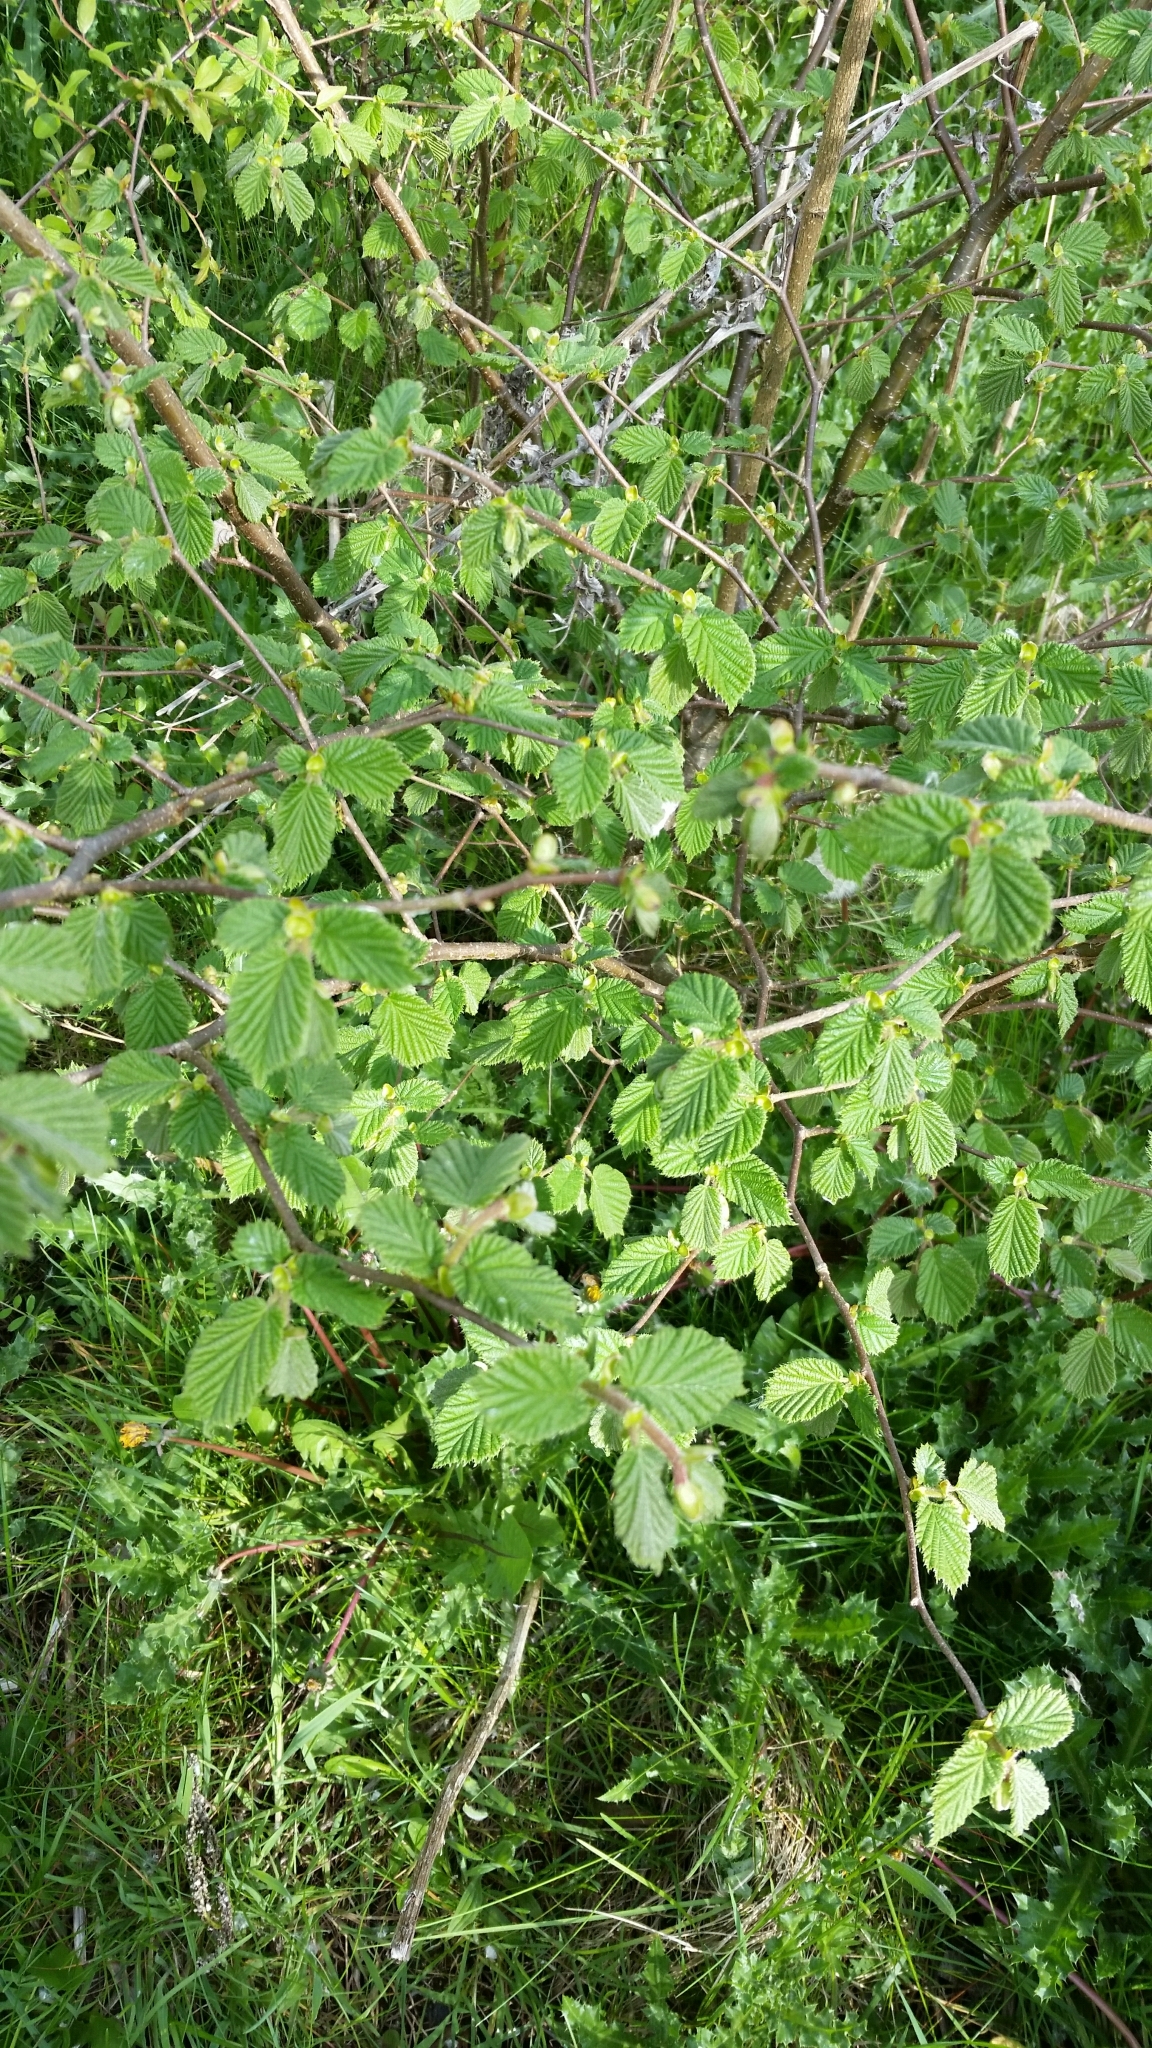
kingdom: Plantae
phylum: Tracheophyta
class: Magnoliopsida
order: Fagales
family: Betulaceae
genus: Corylus
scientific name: Corylus avellana
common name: European hazel
